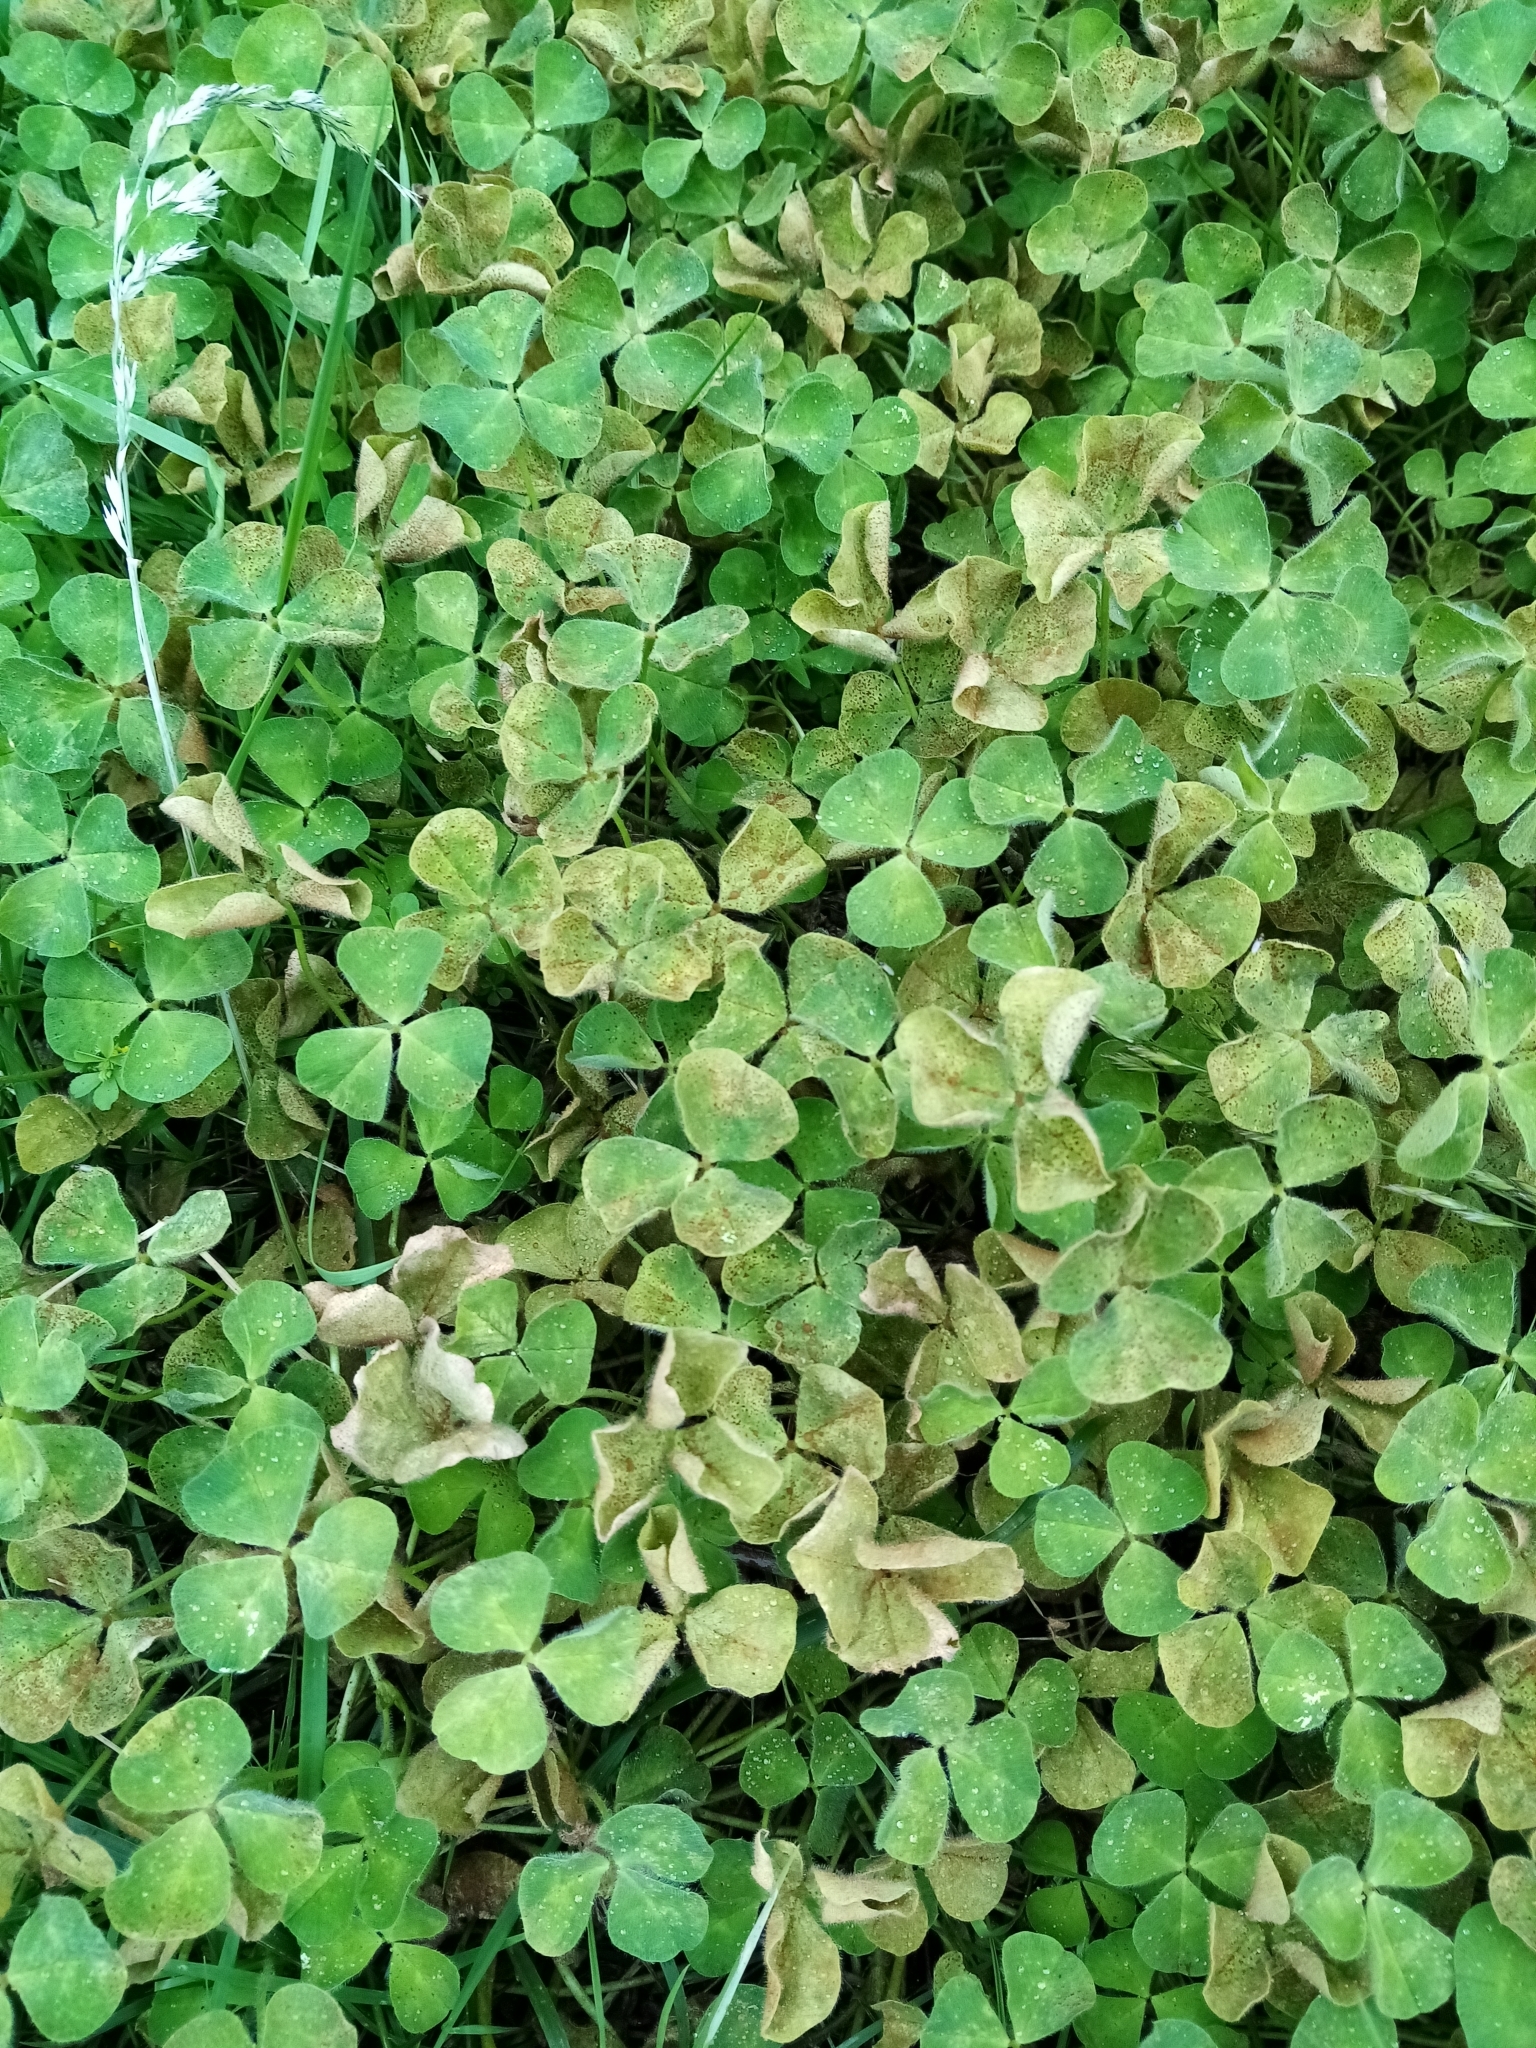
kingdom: Fungi
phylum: Basidiomycota
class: Pucciniomycetes
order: Pucciniales
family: Pucciniaceae
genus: Uromyces
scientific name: Uromyces trifolii-repentis
